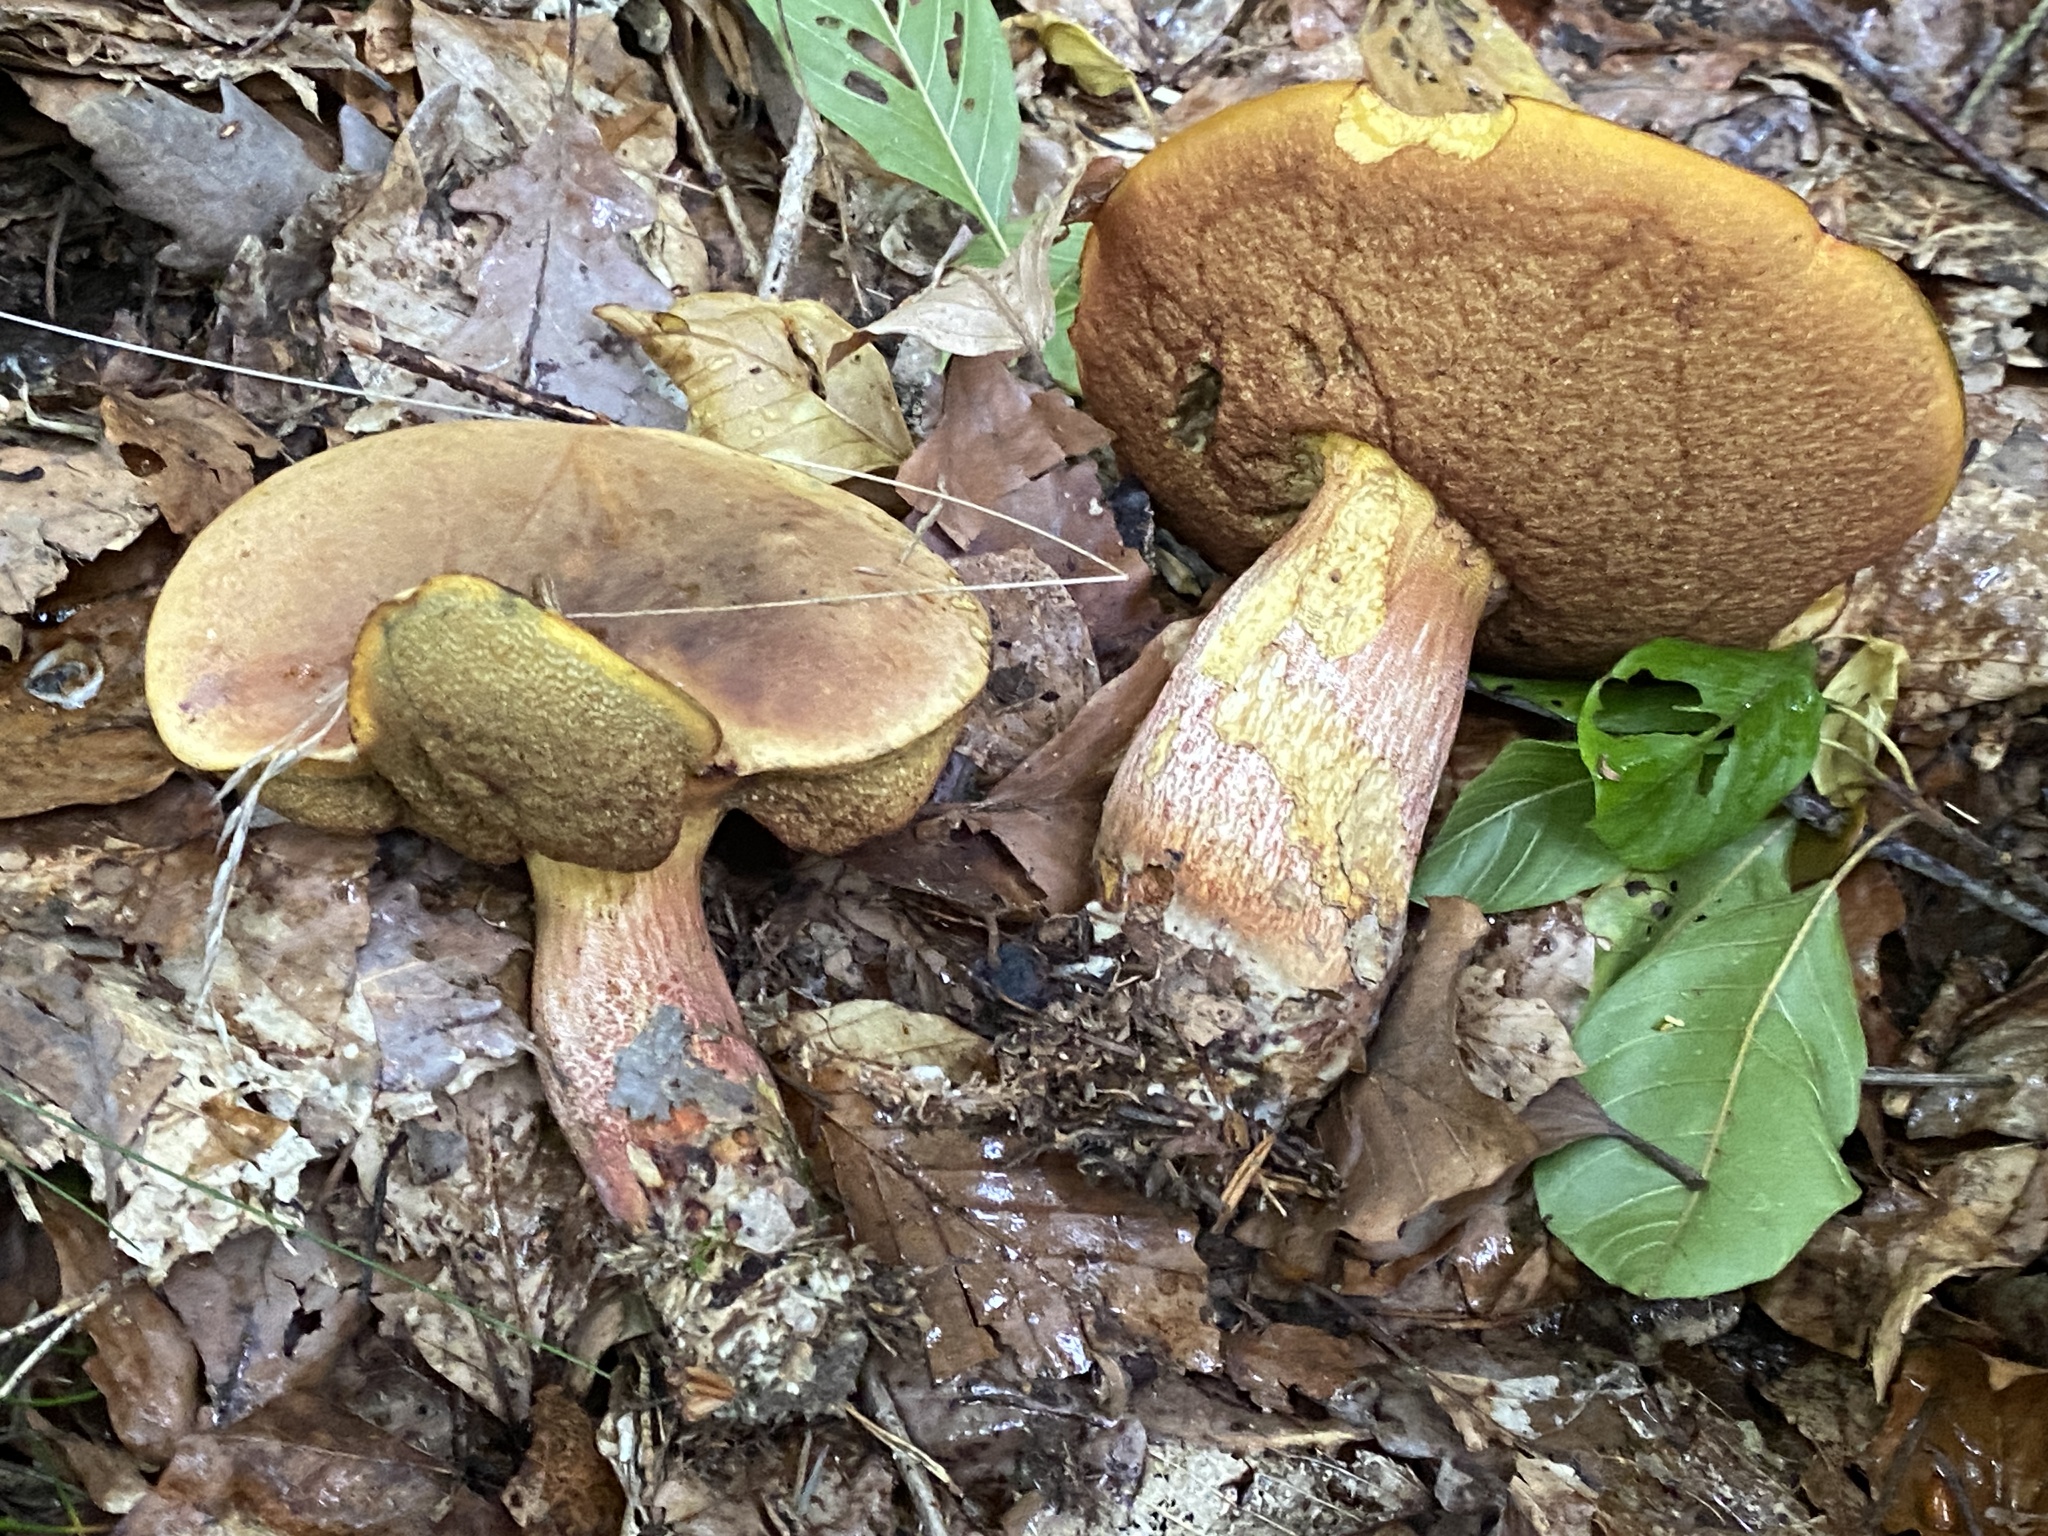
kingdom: Fungi
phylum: Basidiomycota
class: Agaricomycetes
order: Boletales
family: Boletaceae
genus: Neoboletus
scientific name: Neoboletus erythropus
